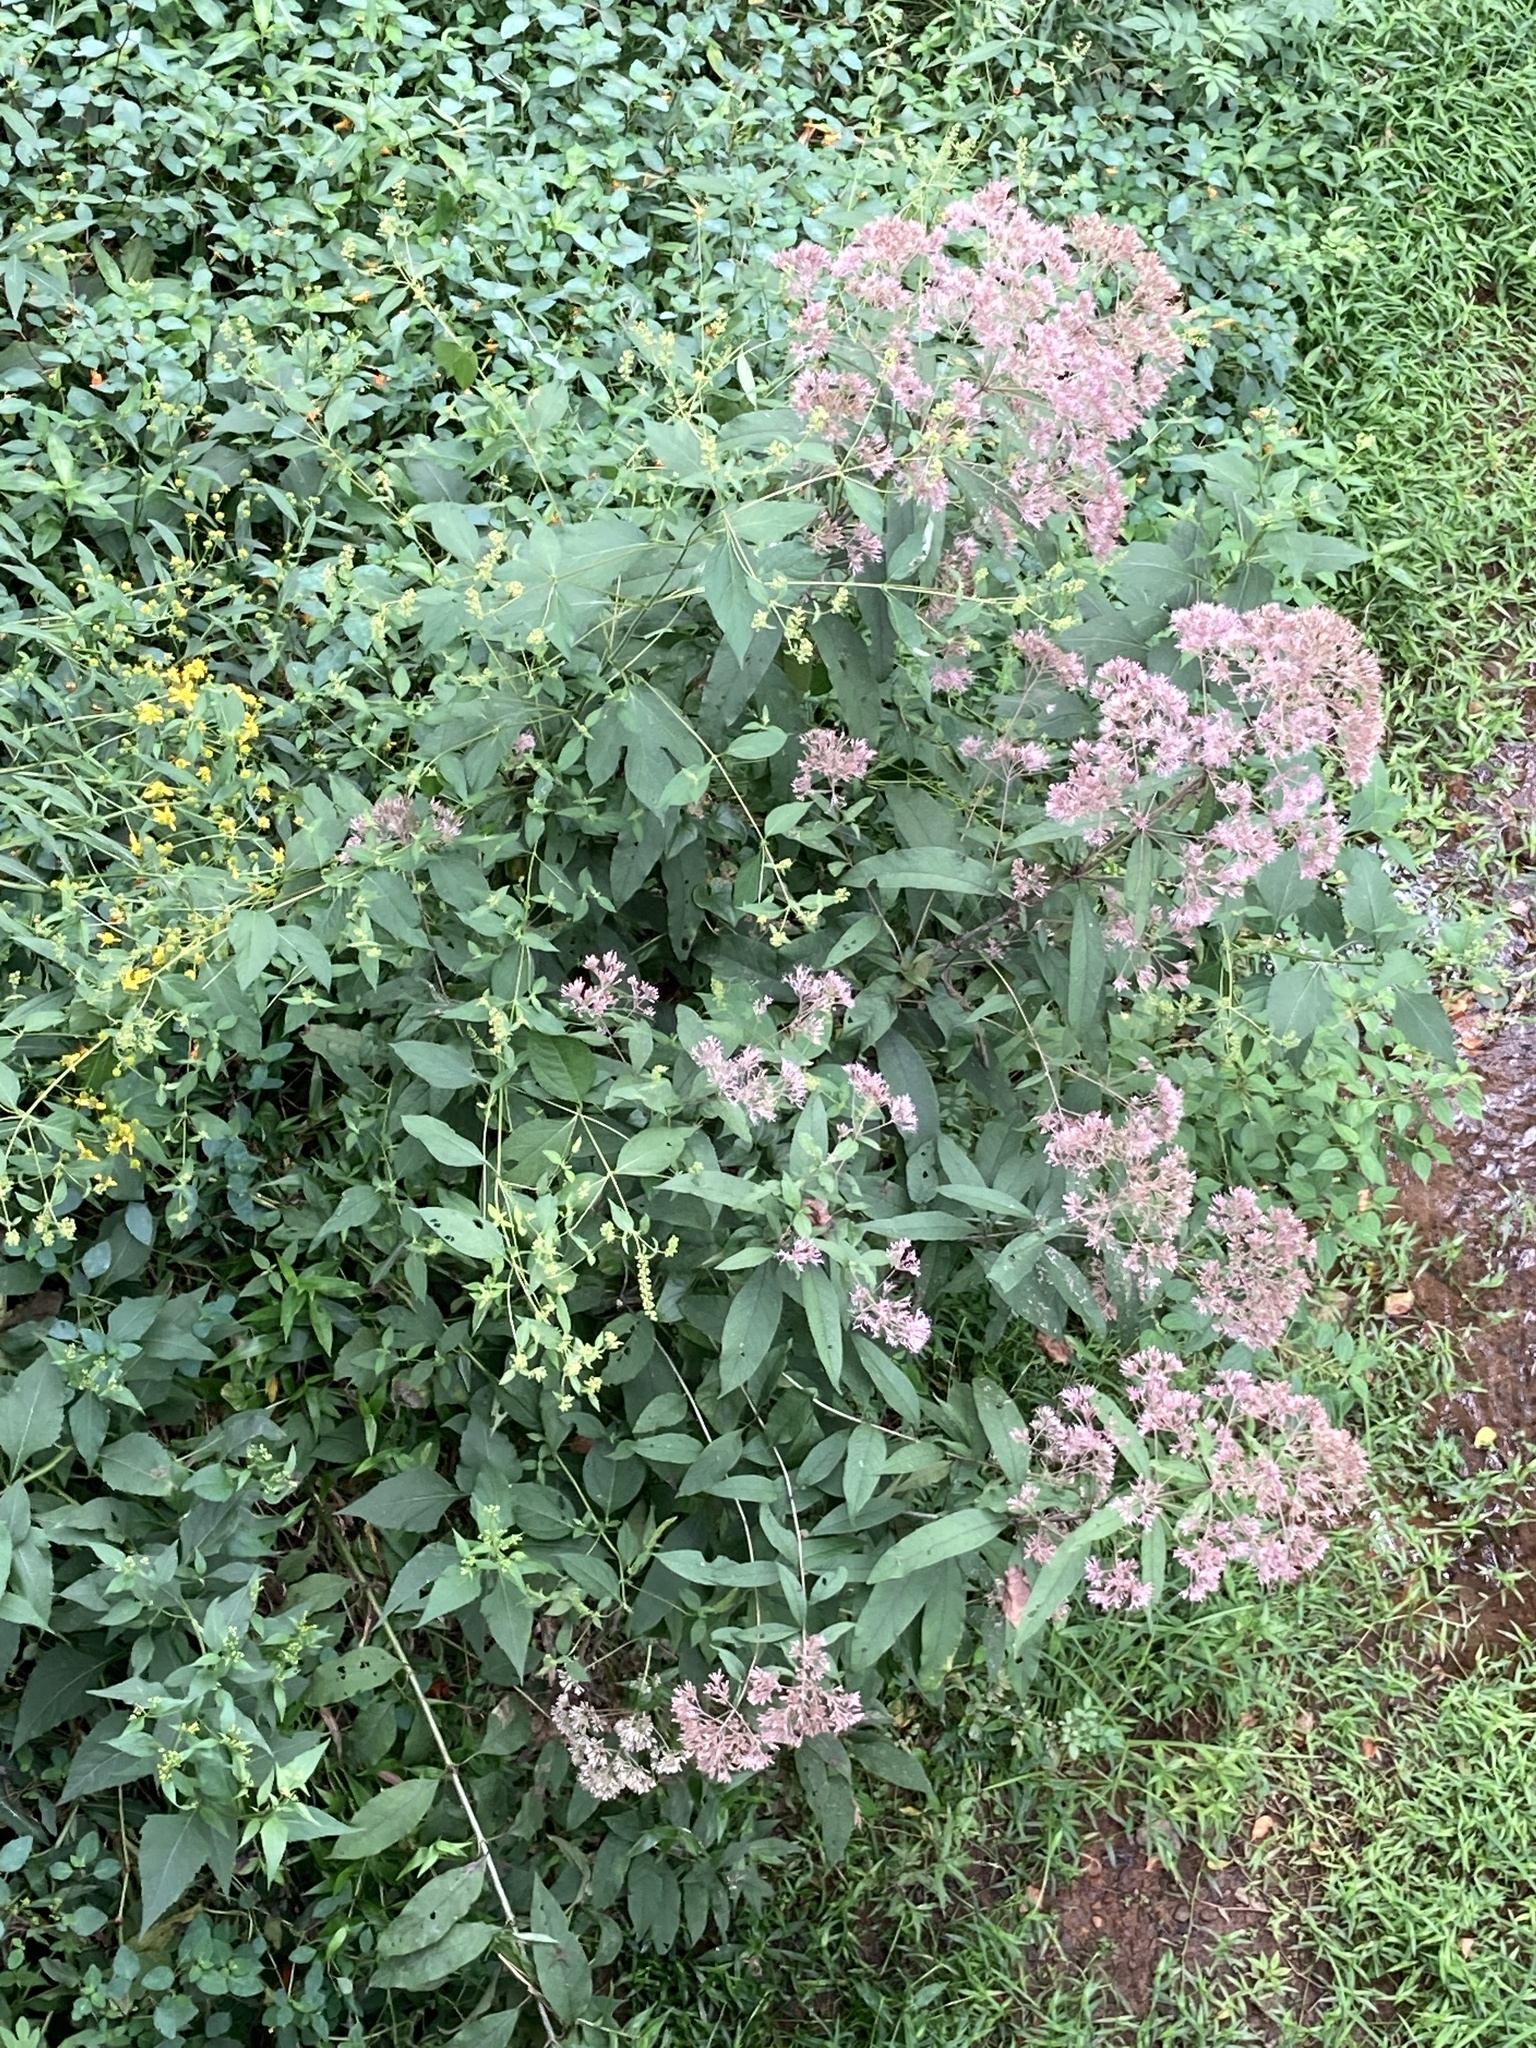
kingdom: Plantae
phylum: Tracheophyta
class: Magnoliopsida
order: Asterales
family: Asteraceae
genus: Eutrochium
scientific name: Eutrochium fistulosum
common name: Trumpetweed
